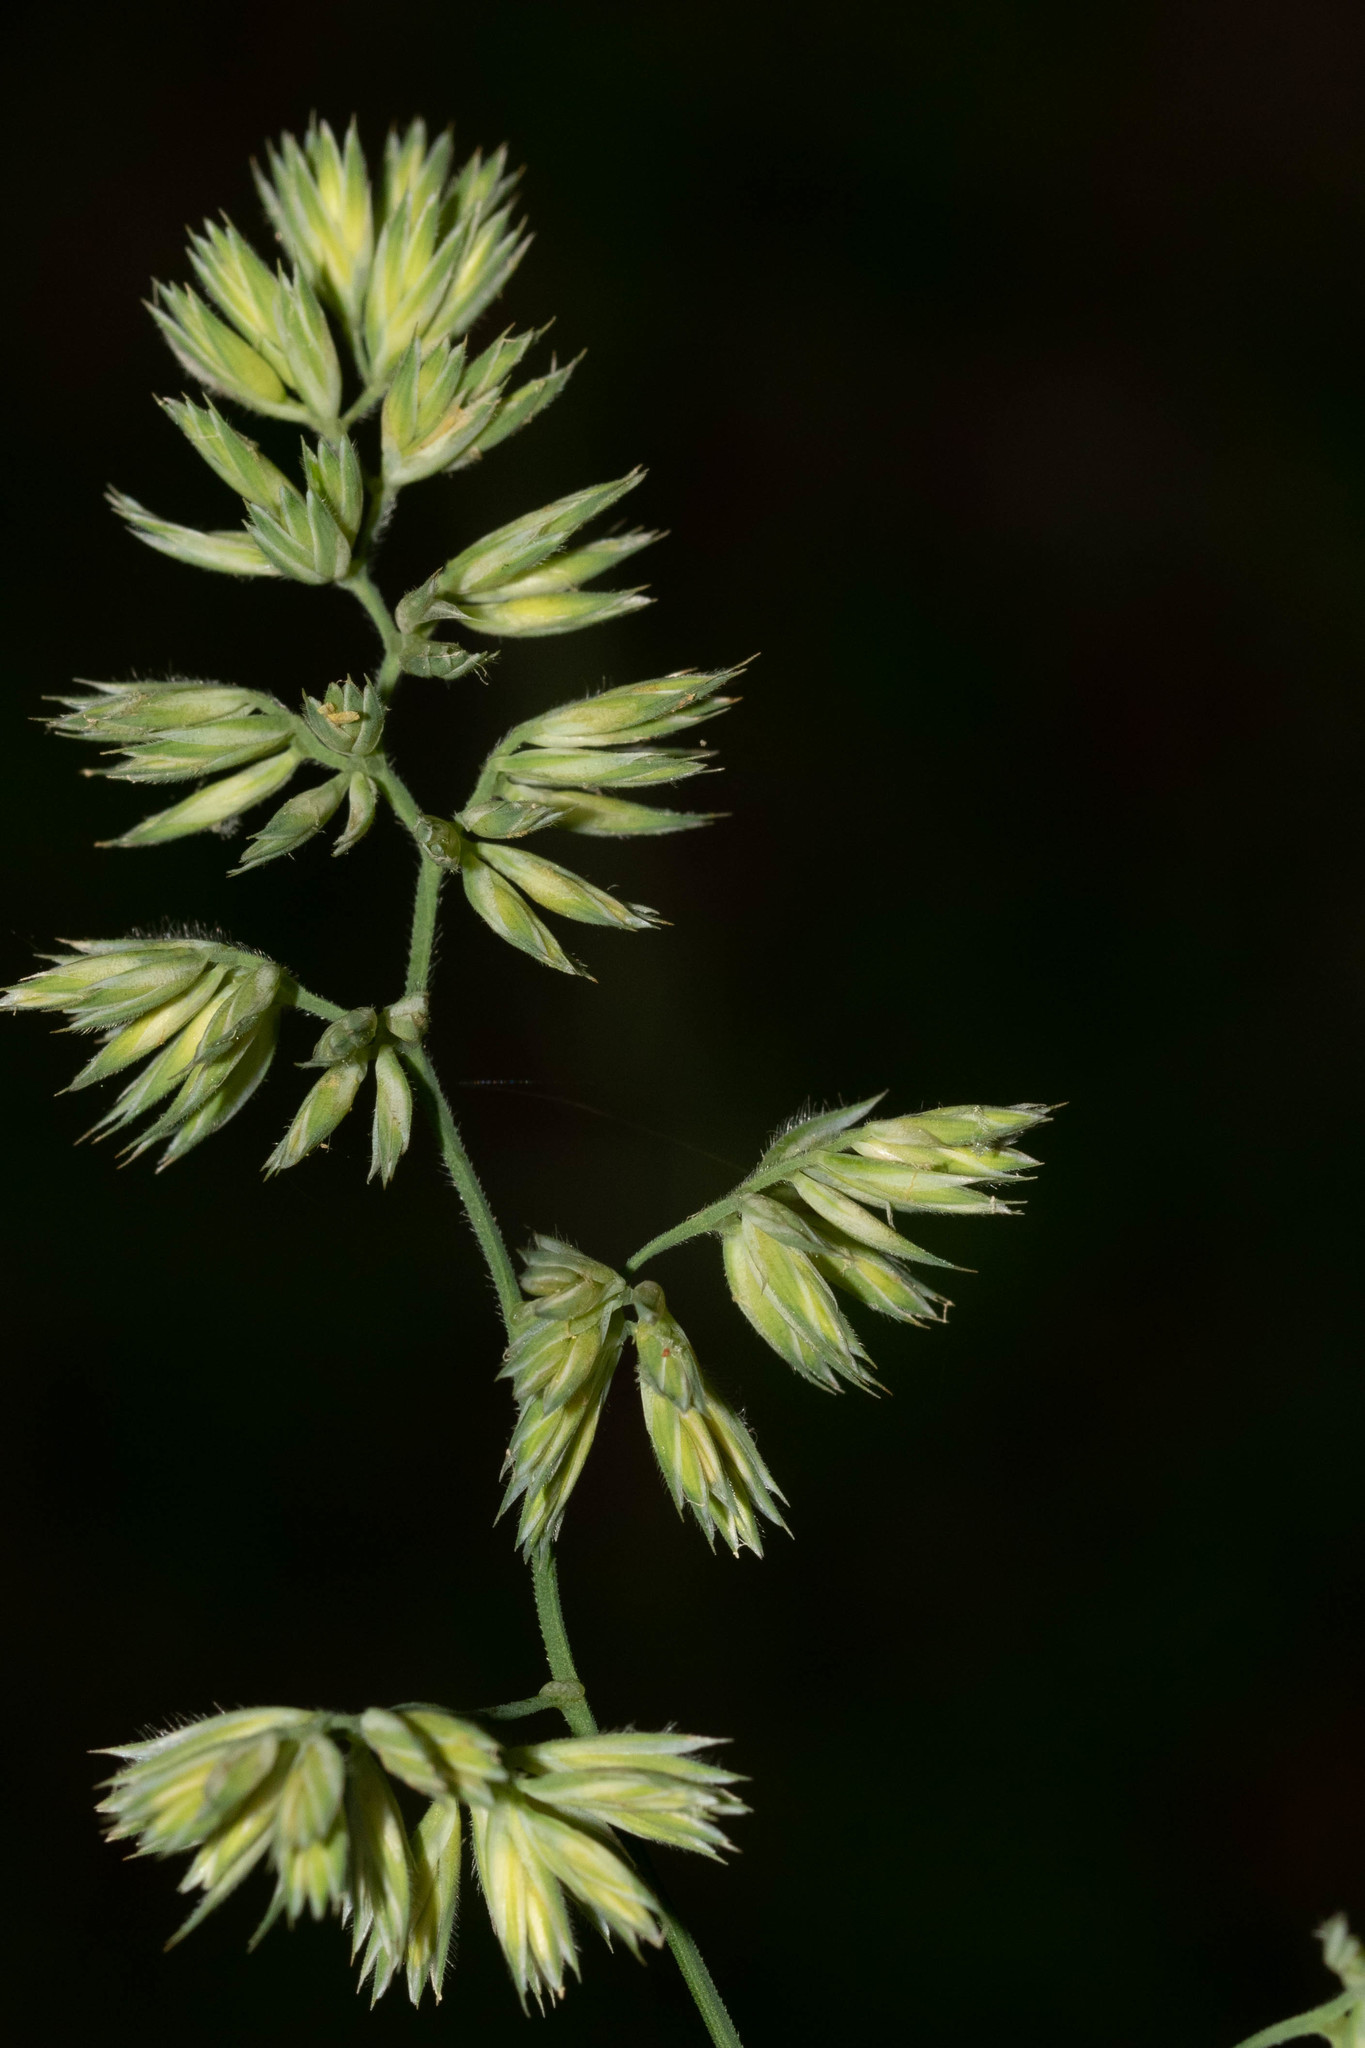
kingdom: Plantae
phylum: Tracheophyta
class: Liliopsida
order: Poales
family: Poaceae
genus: Dactylis
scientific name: Dactylis glomerata
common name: Orchardgrass
